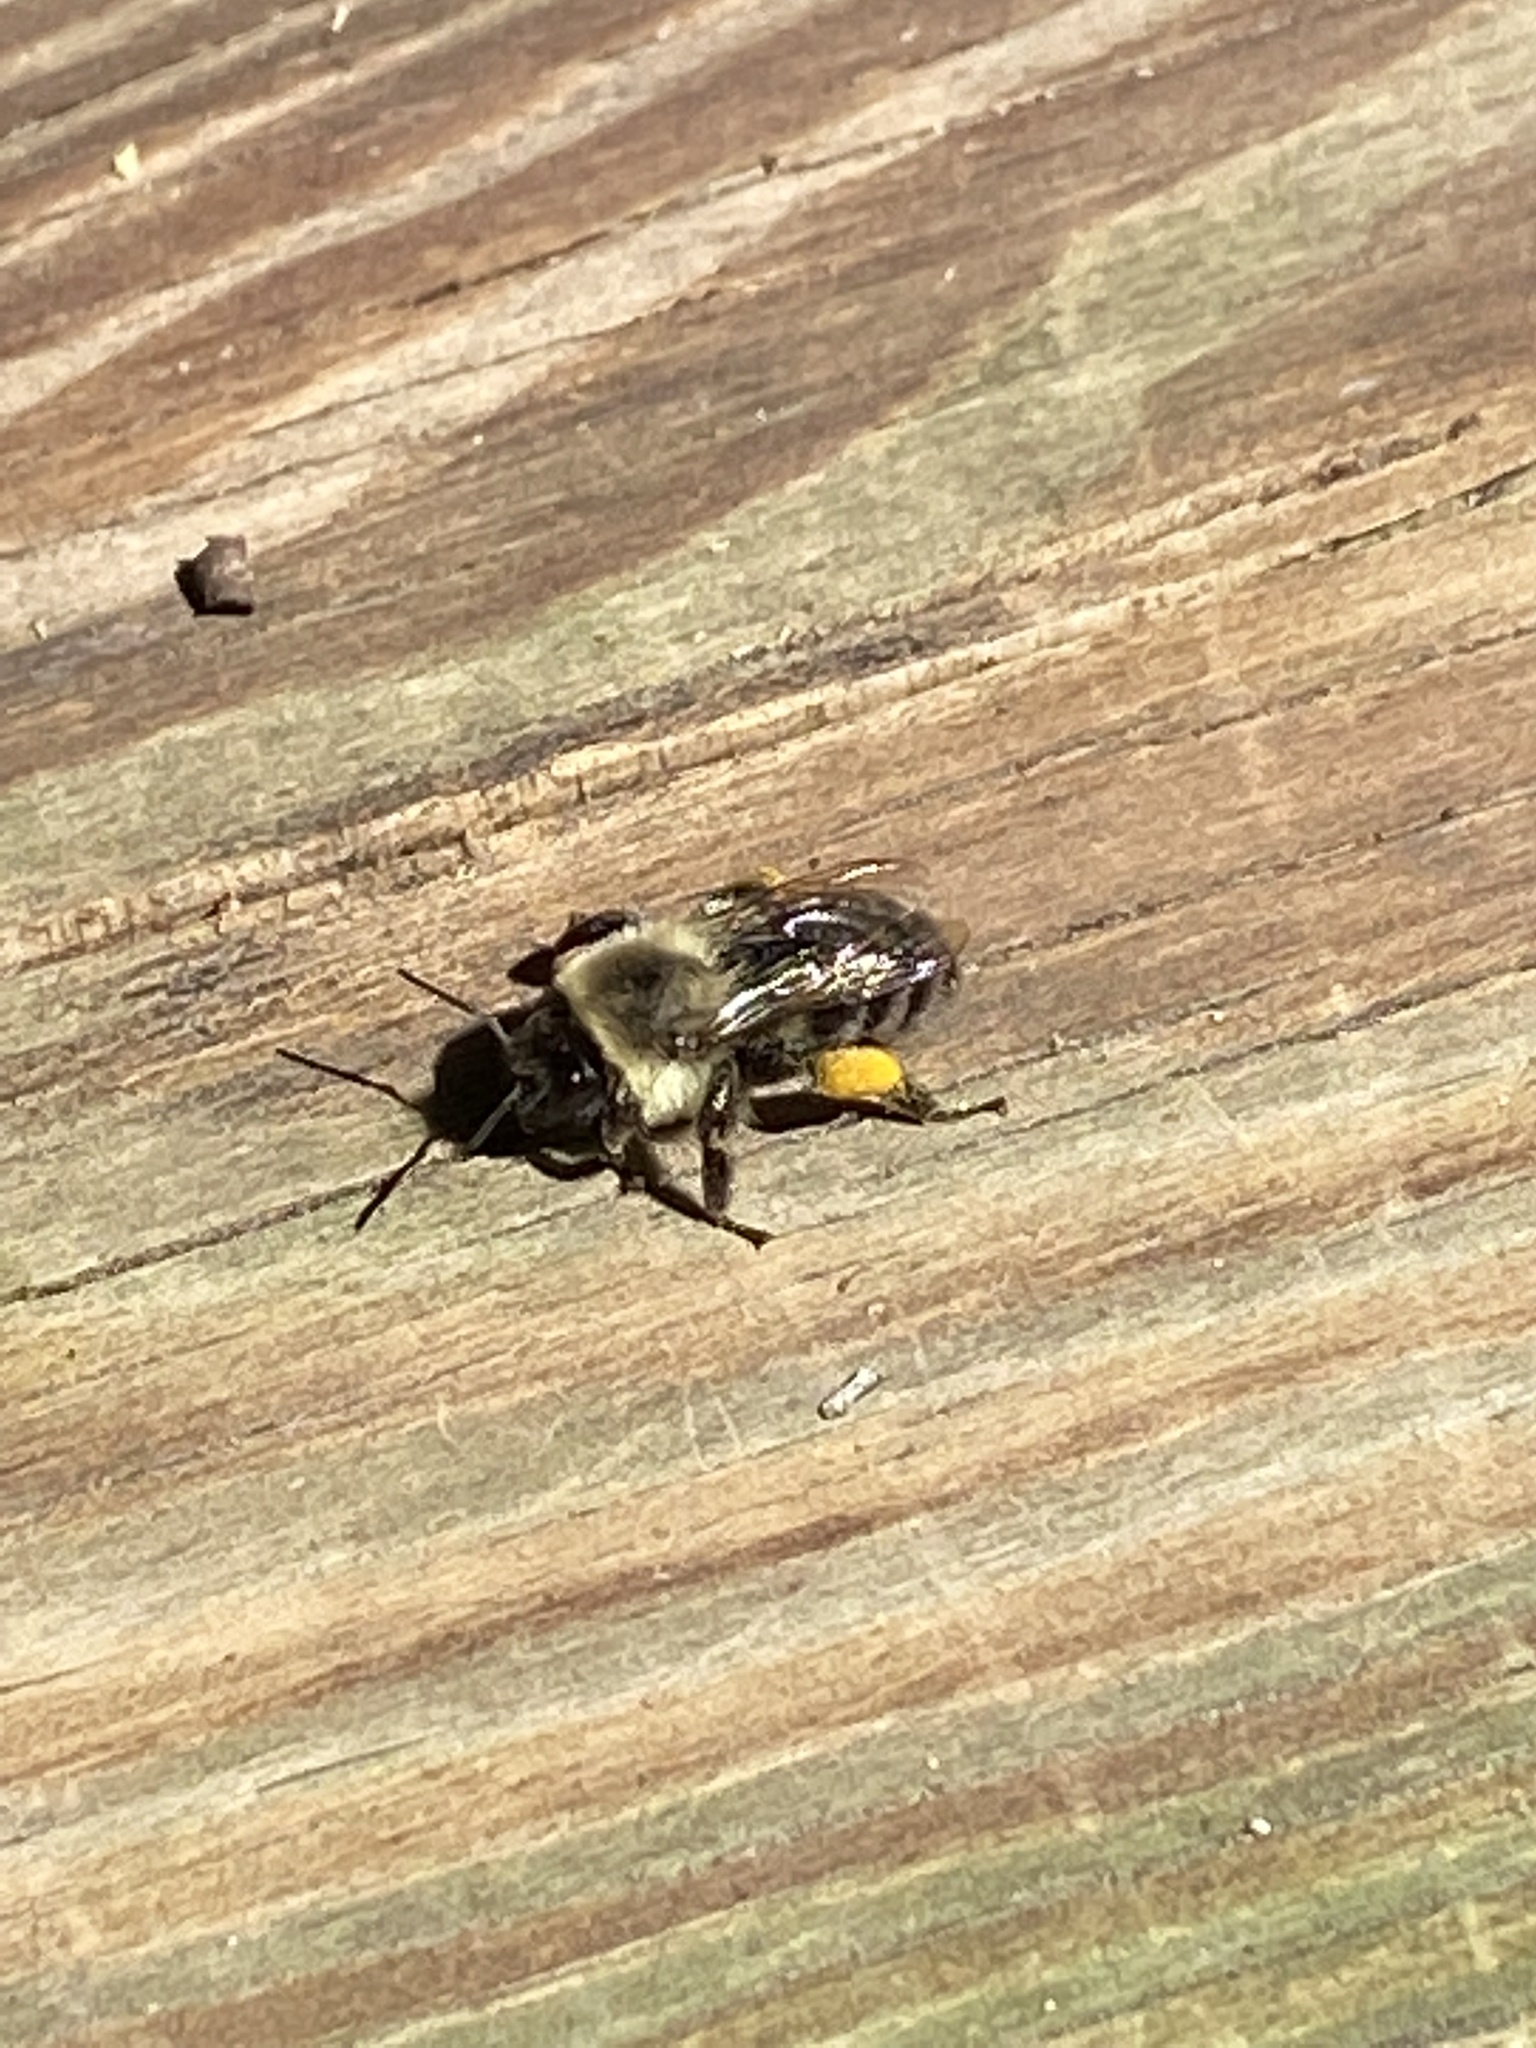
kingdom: Animalia
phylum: Arthropoda
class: Insecta
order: Hymenoptera
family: Apidae
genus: Bombus
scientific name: Bombus impatiens
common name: Common eastern bumble bee
